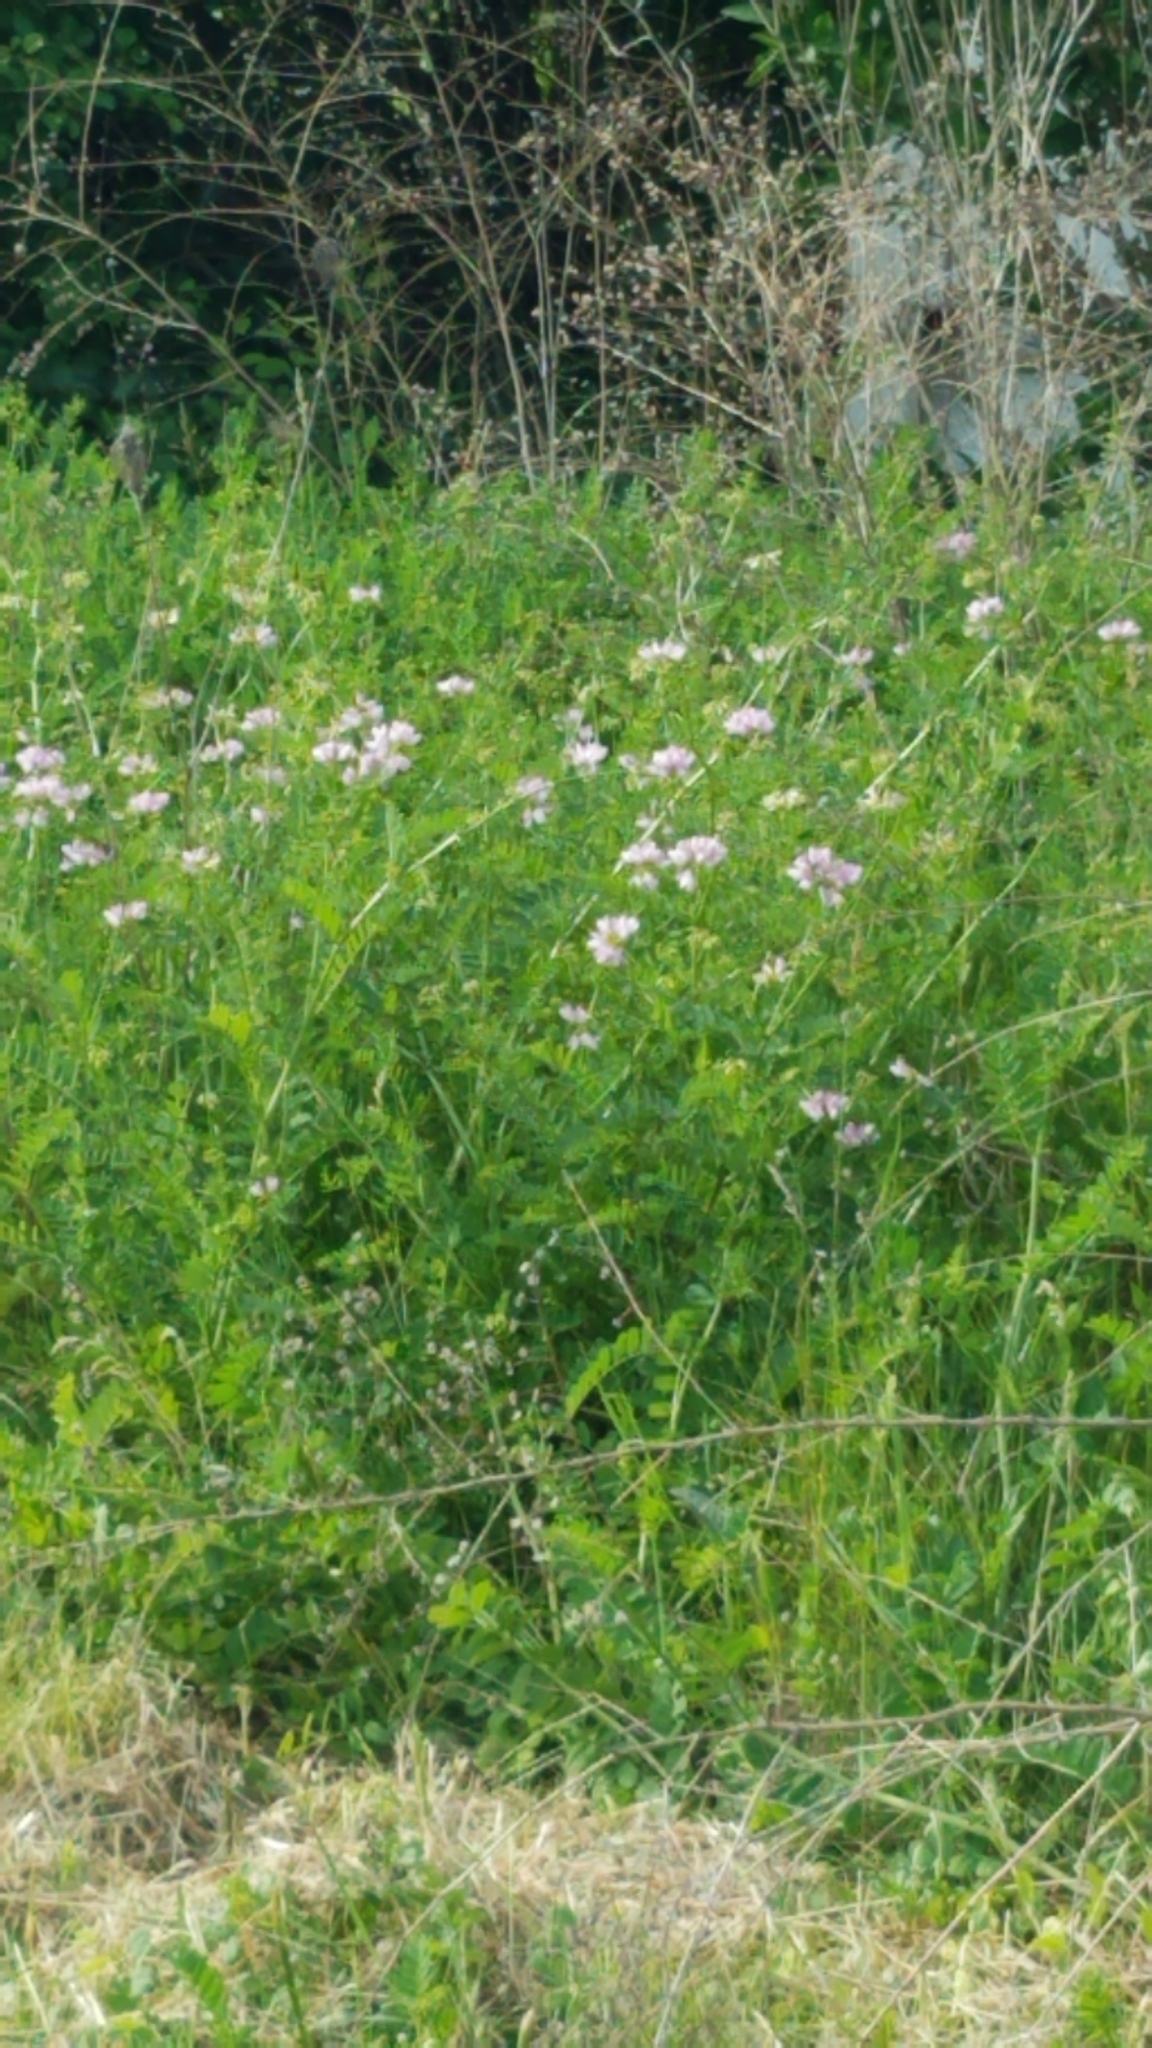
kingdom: Plantae
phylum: Tracheophyta
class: Magnoliopsida
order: Fabales
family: Fabaceae
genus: Coronilla
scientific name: Coronilla varia
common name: Crownvetch
